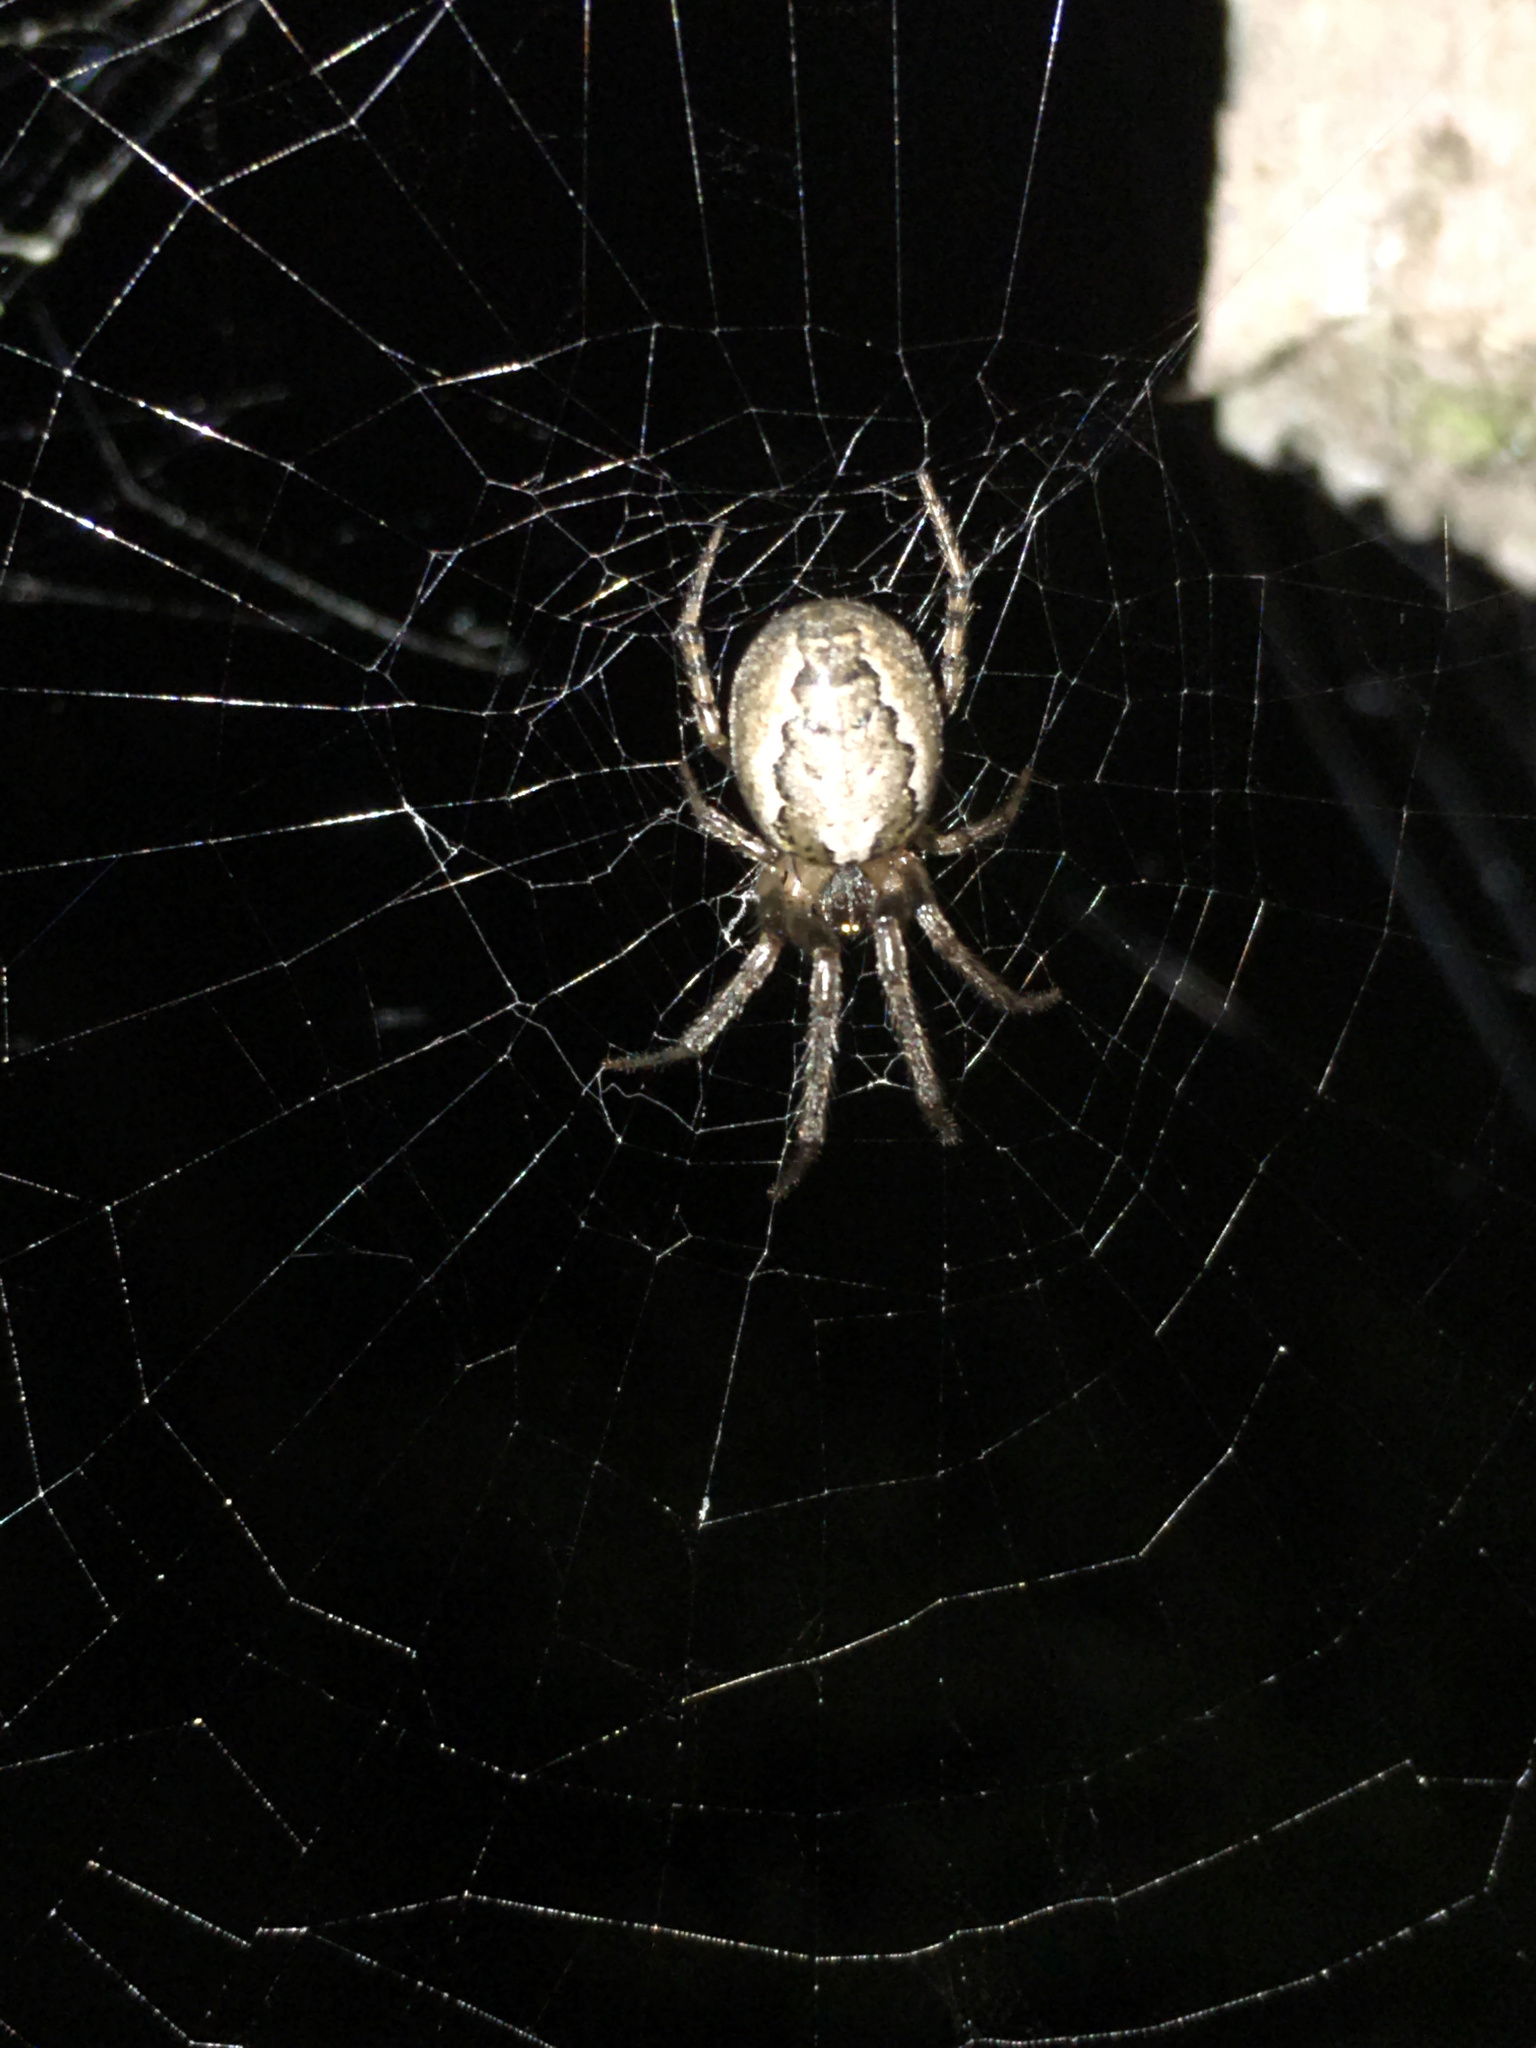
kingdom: Animalia
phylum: Arthropoda
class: Arachnida
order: Araneae
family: Araneidae
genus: Zygiella
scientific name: Zygiella x-notata
